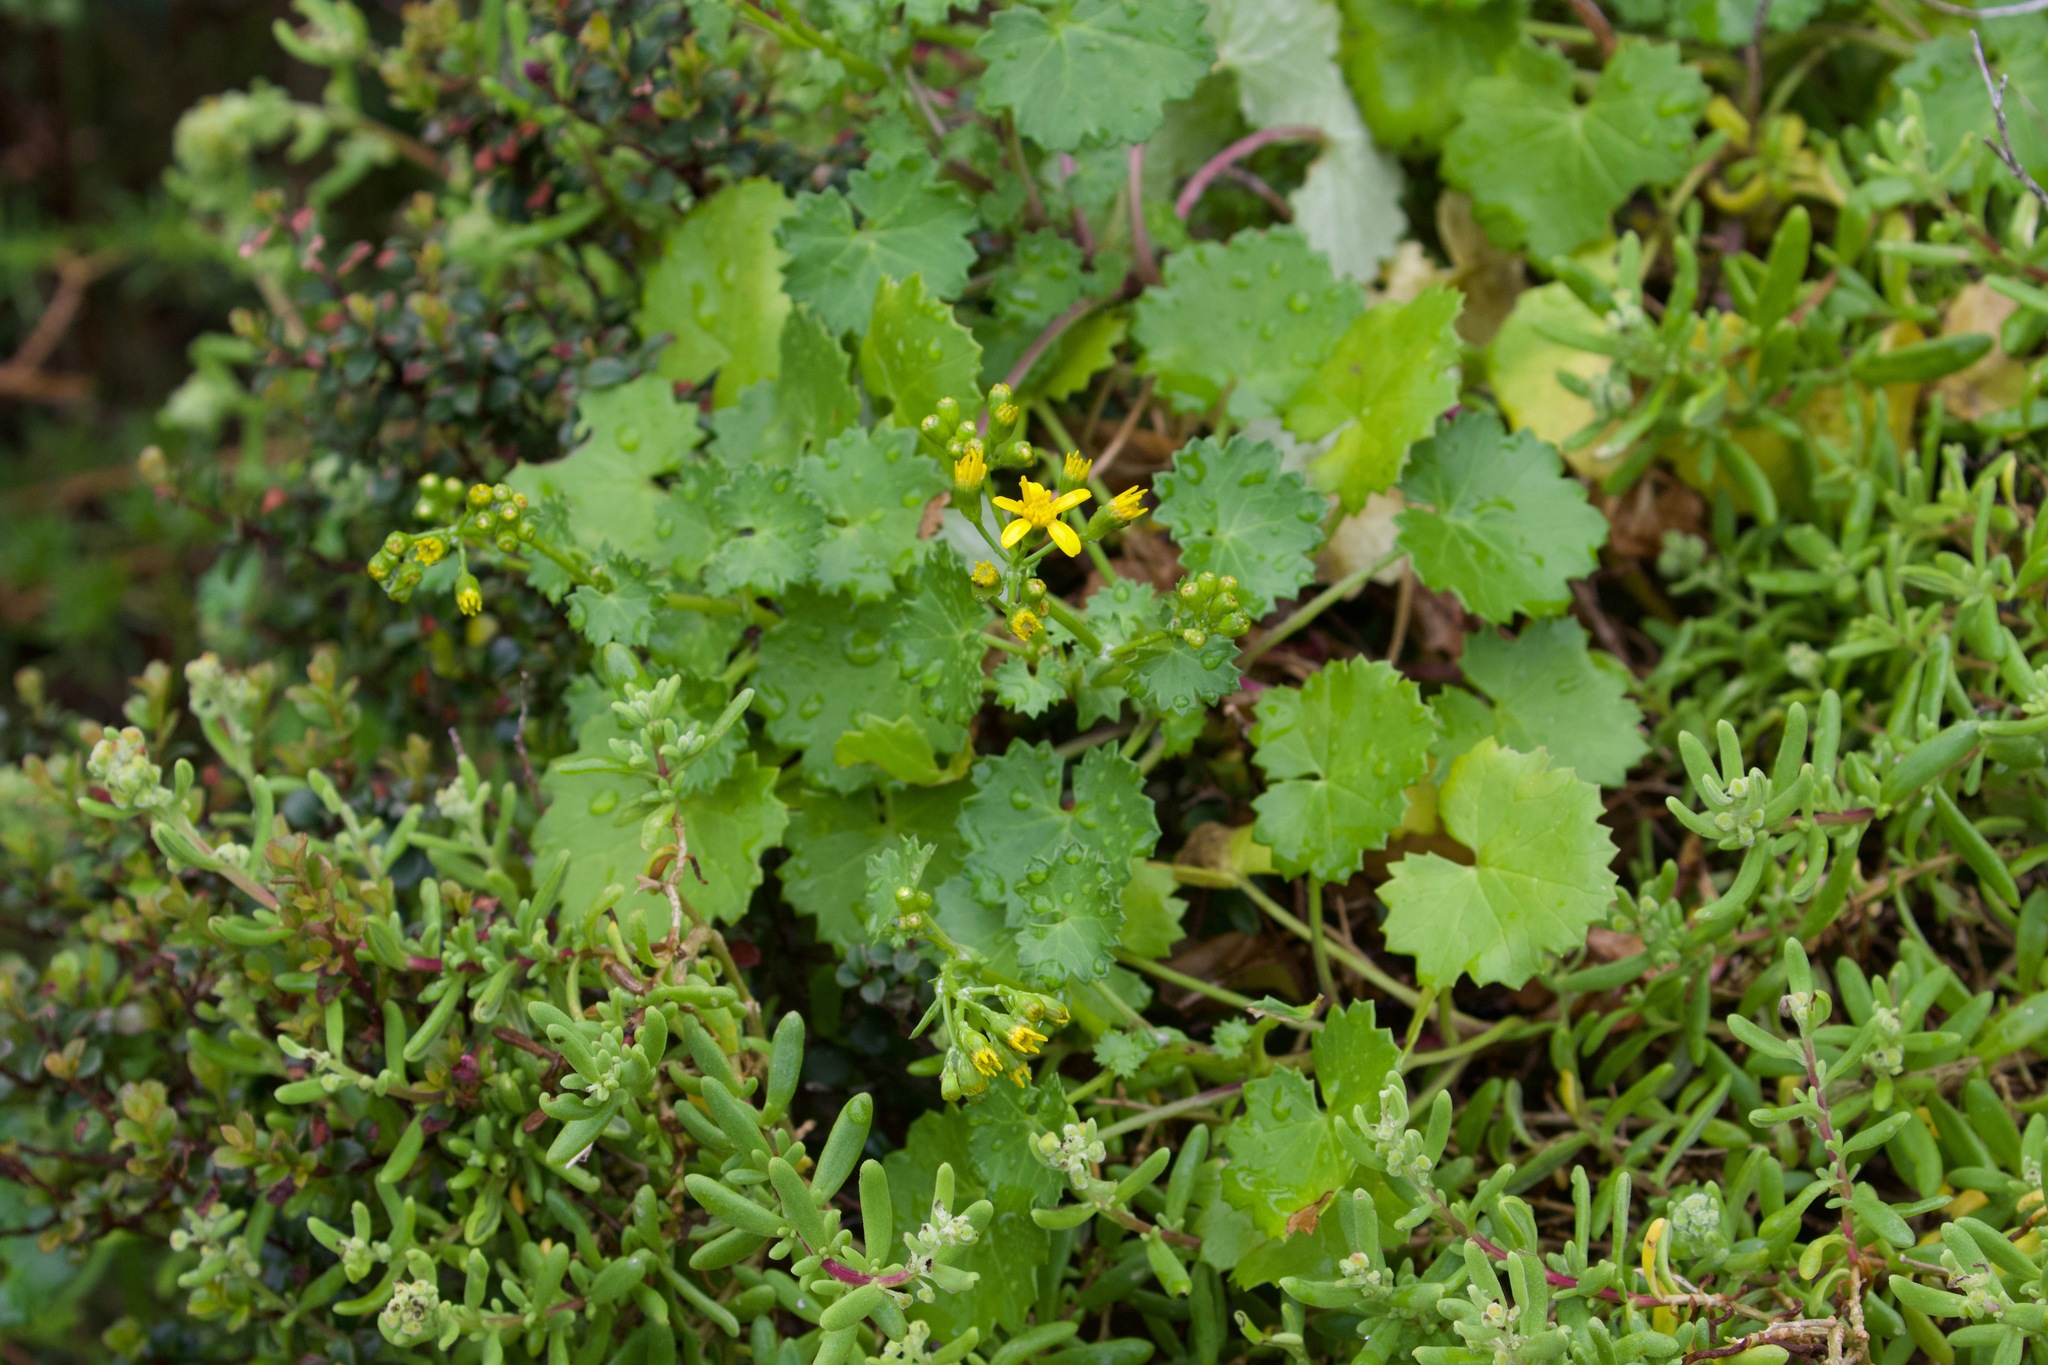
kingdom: Plantae
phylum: Tracheophyta
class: Magnoliopsida
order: Asterales
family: Asteraceae
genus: Cineraria
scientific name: Cineraria geifolia
